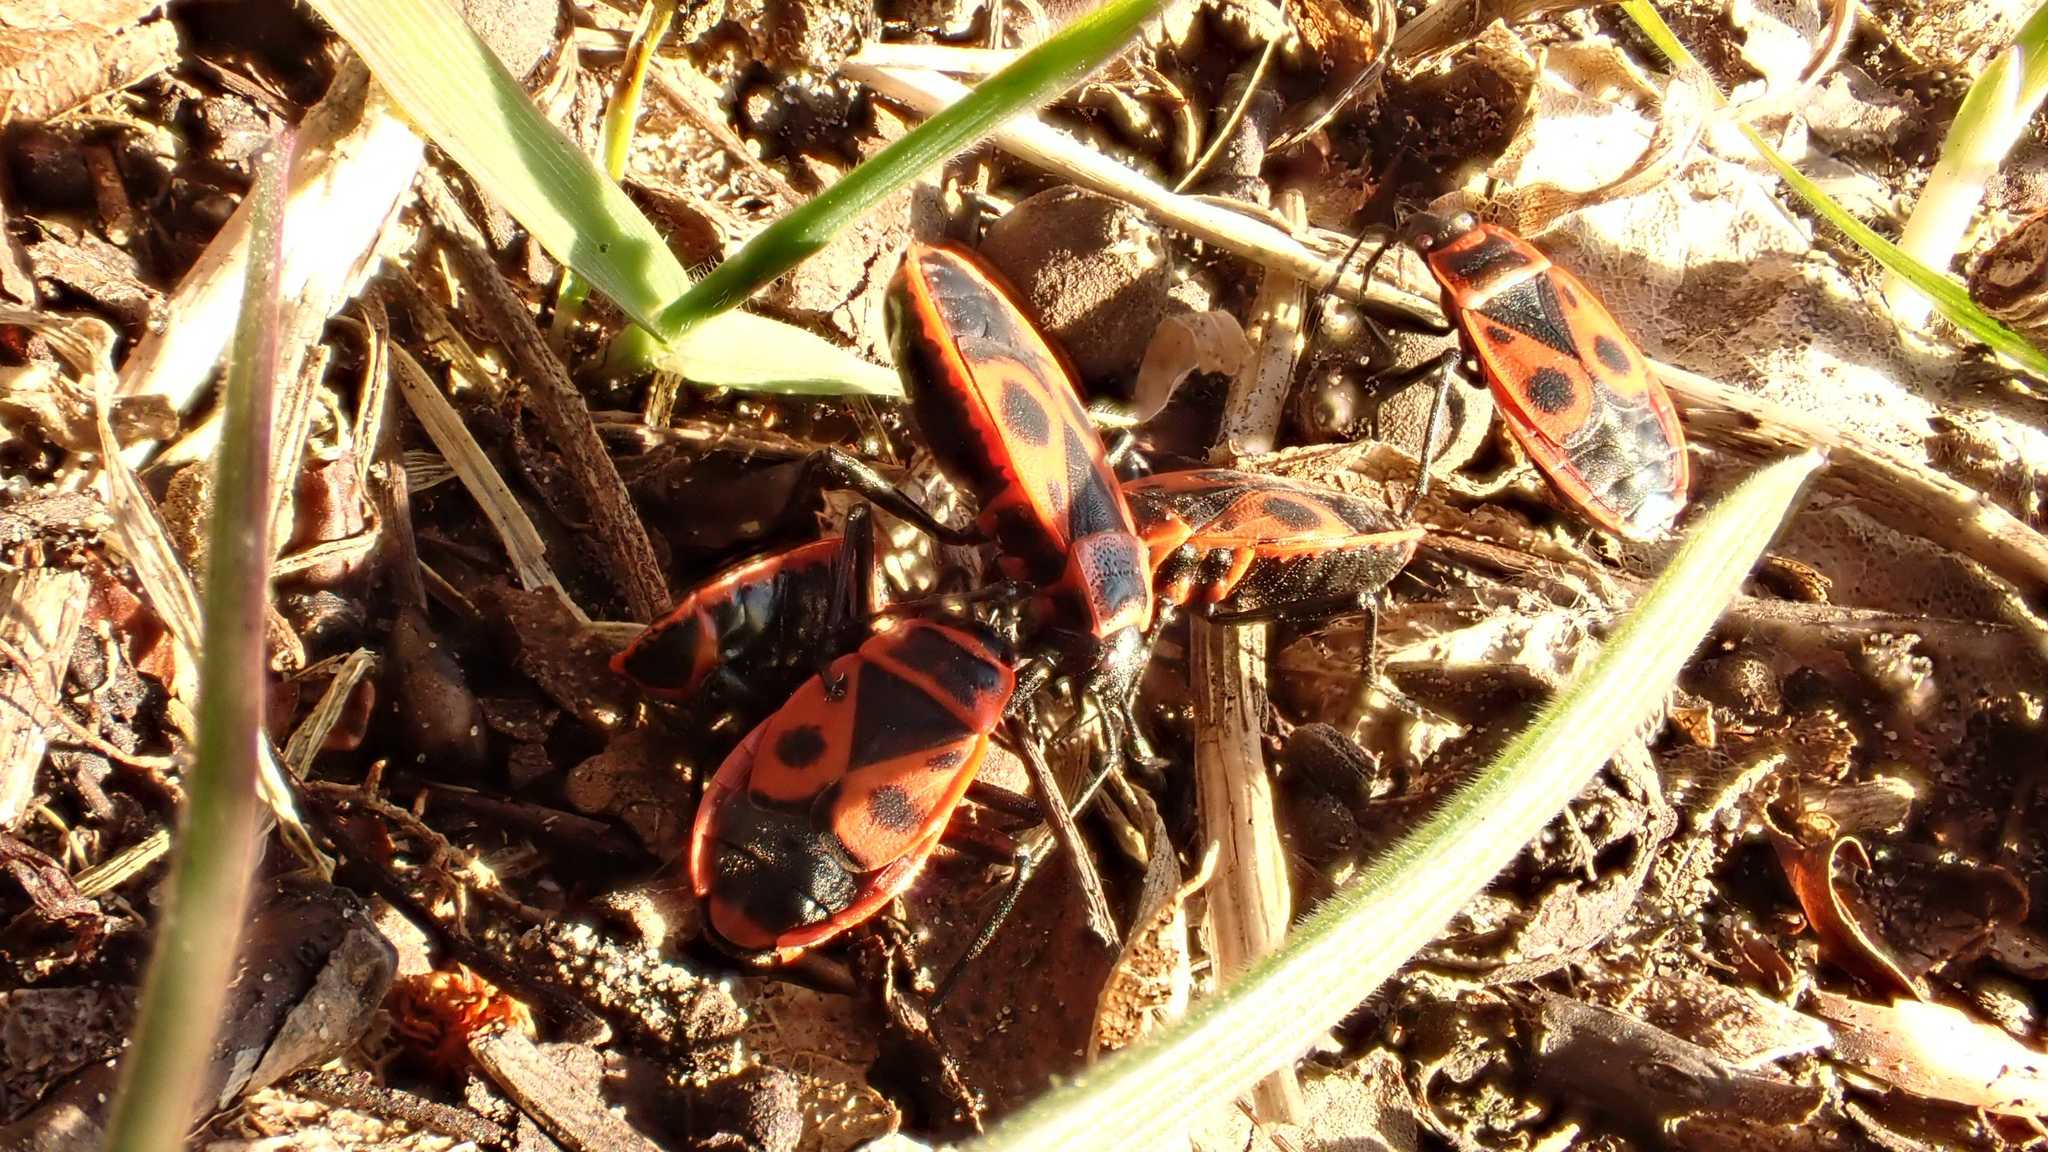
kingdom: Animalia
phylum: Arthropoda
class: Insecta
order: Hemiptera
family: Pyrrhocoridae
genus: Pyrrhocoris
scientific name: Pyrrhocoris apterus
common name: Firebug
